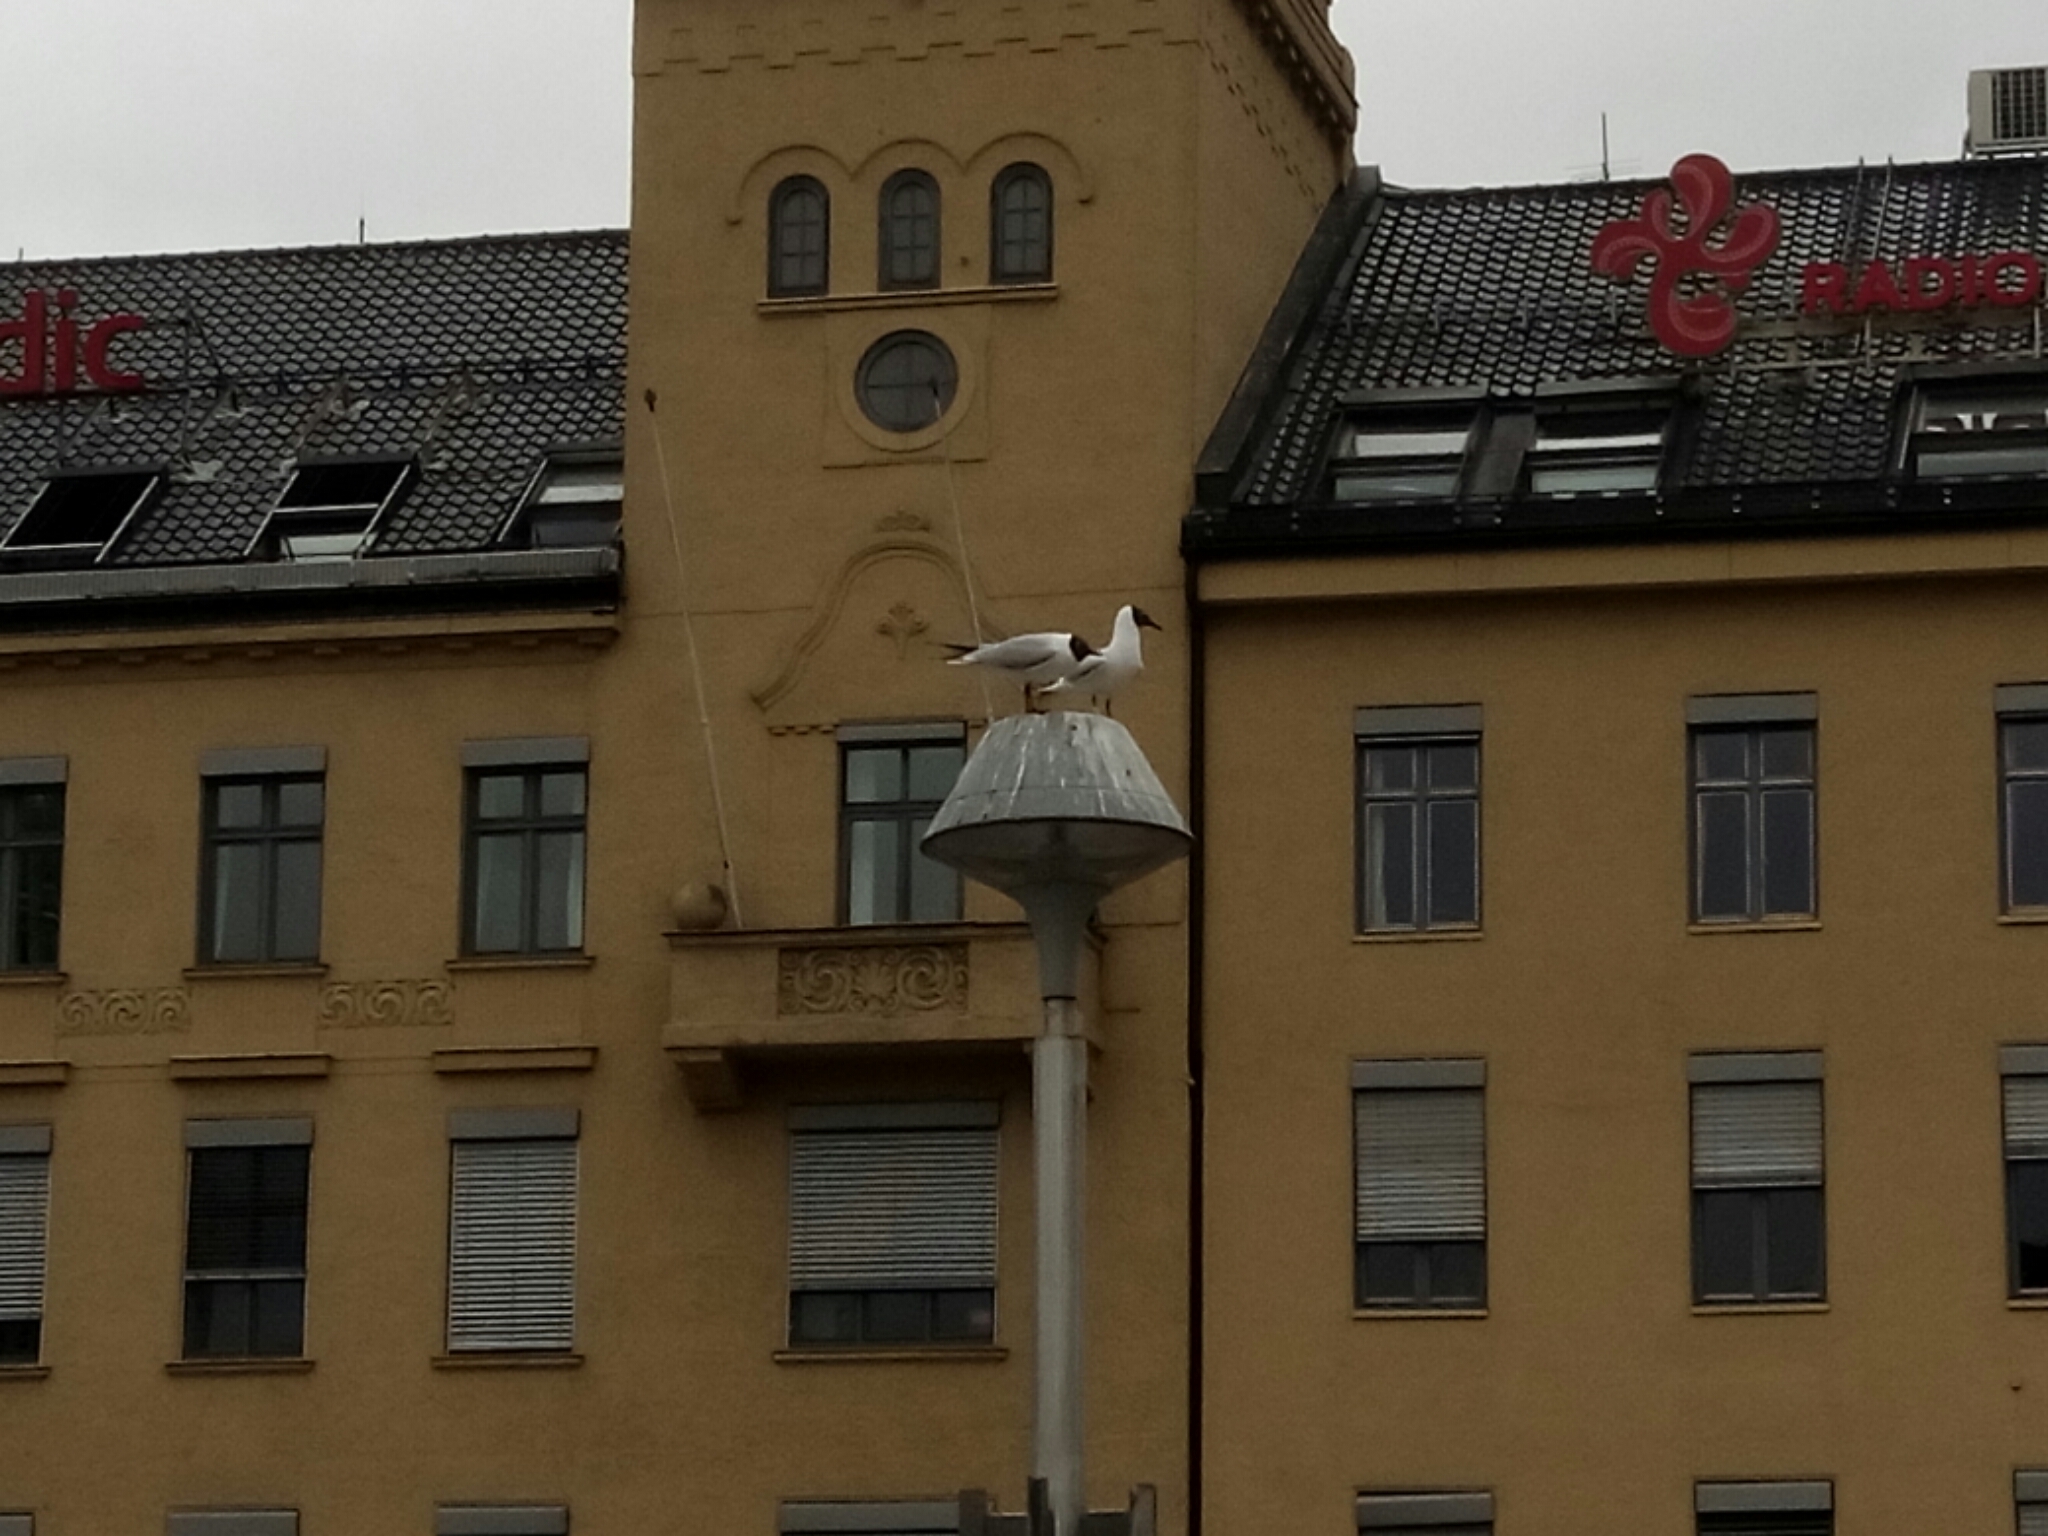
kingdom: Animalia
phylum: Chordata
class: Aves
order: Charadriiformes
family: Laridae
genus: Chroicocephalus
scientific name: Chroicocephalus ridibundus
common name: Black-headed gull
